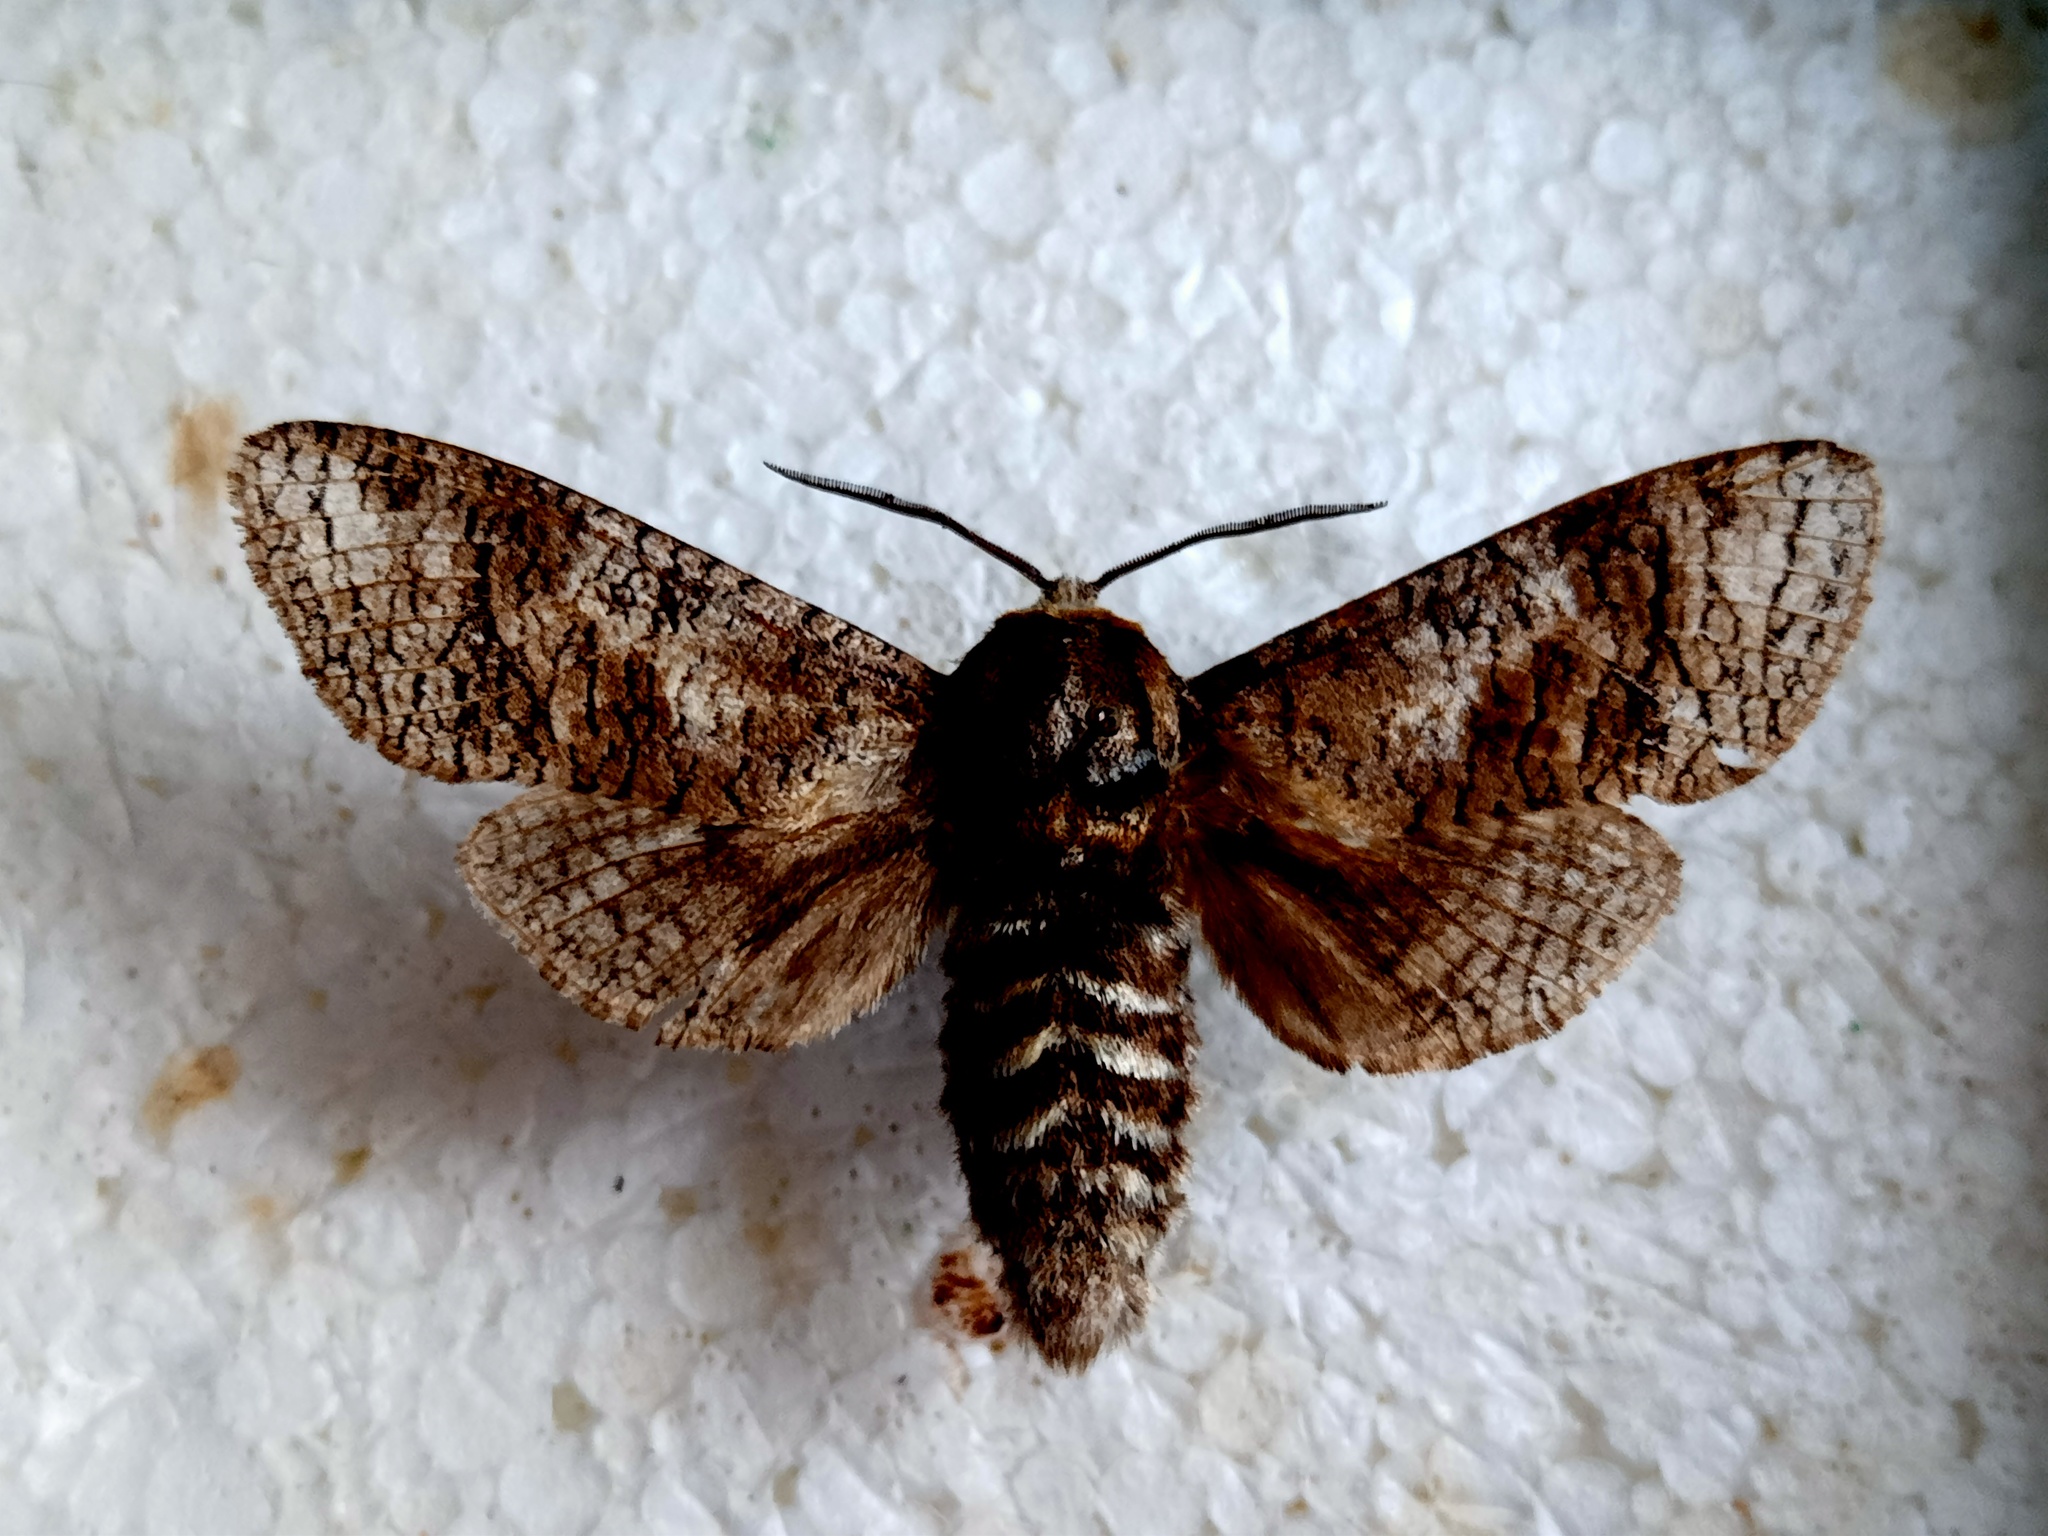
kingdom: Animalia
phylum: Arthropoda
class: Insecta
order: Lepidoptera
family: Cossidae
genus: Cossus
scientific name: Cossus cossus
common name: Goat moth
